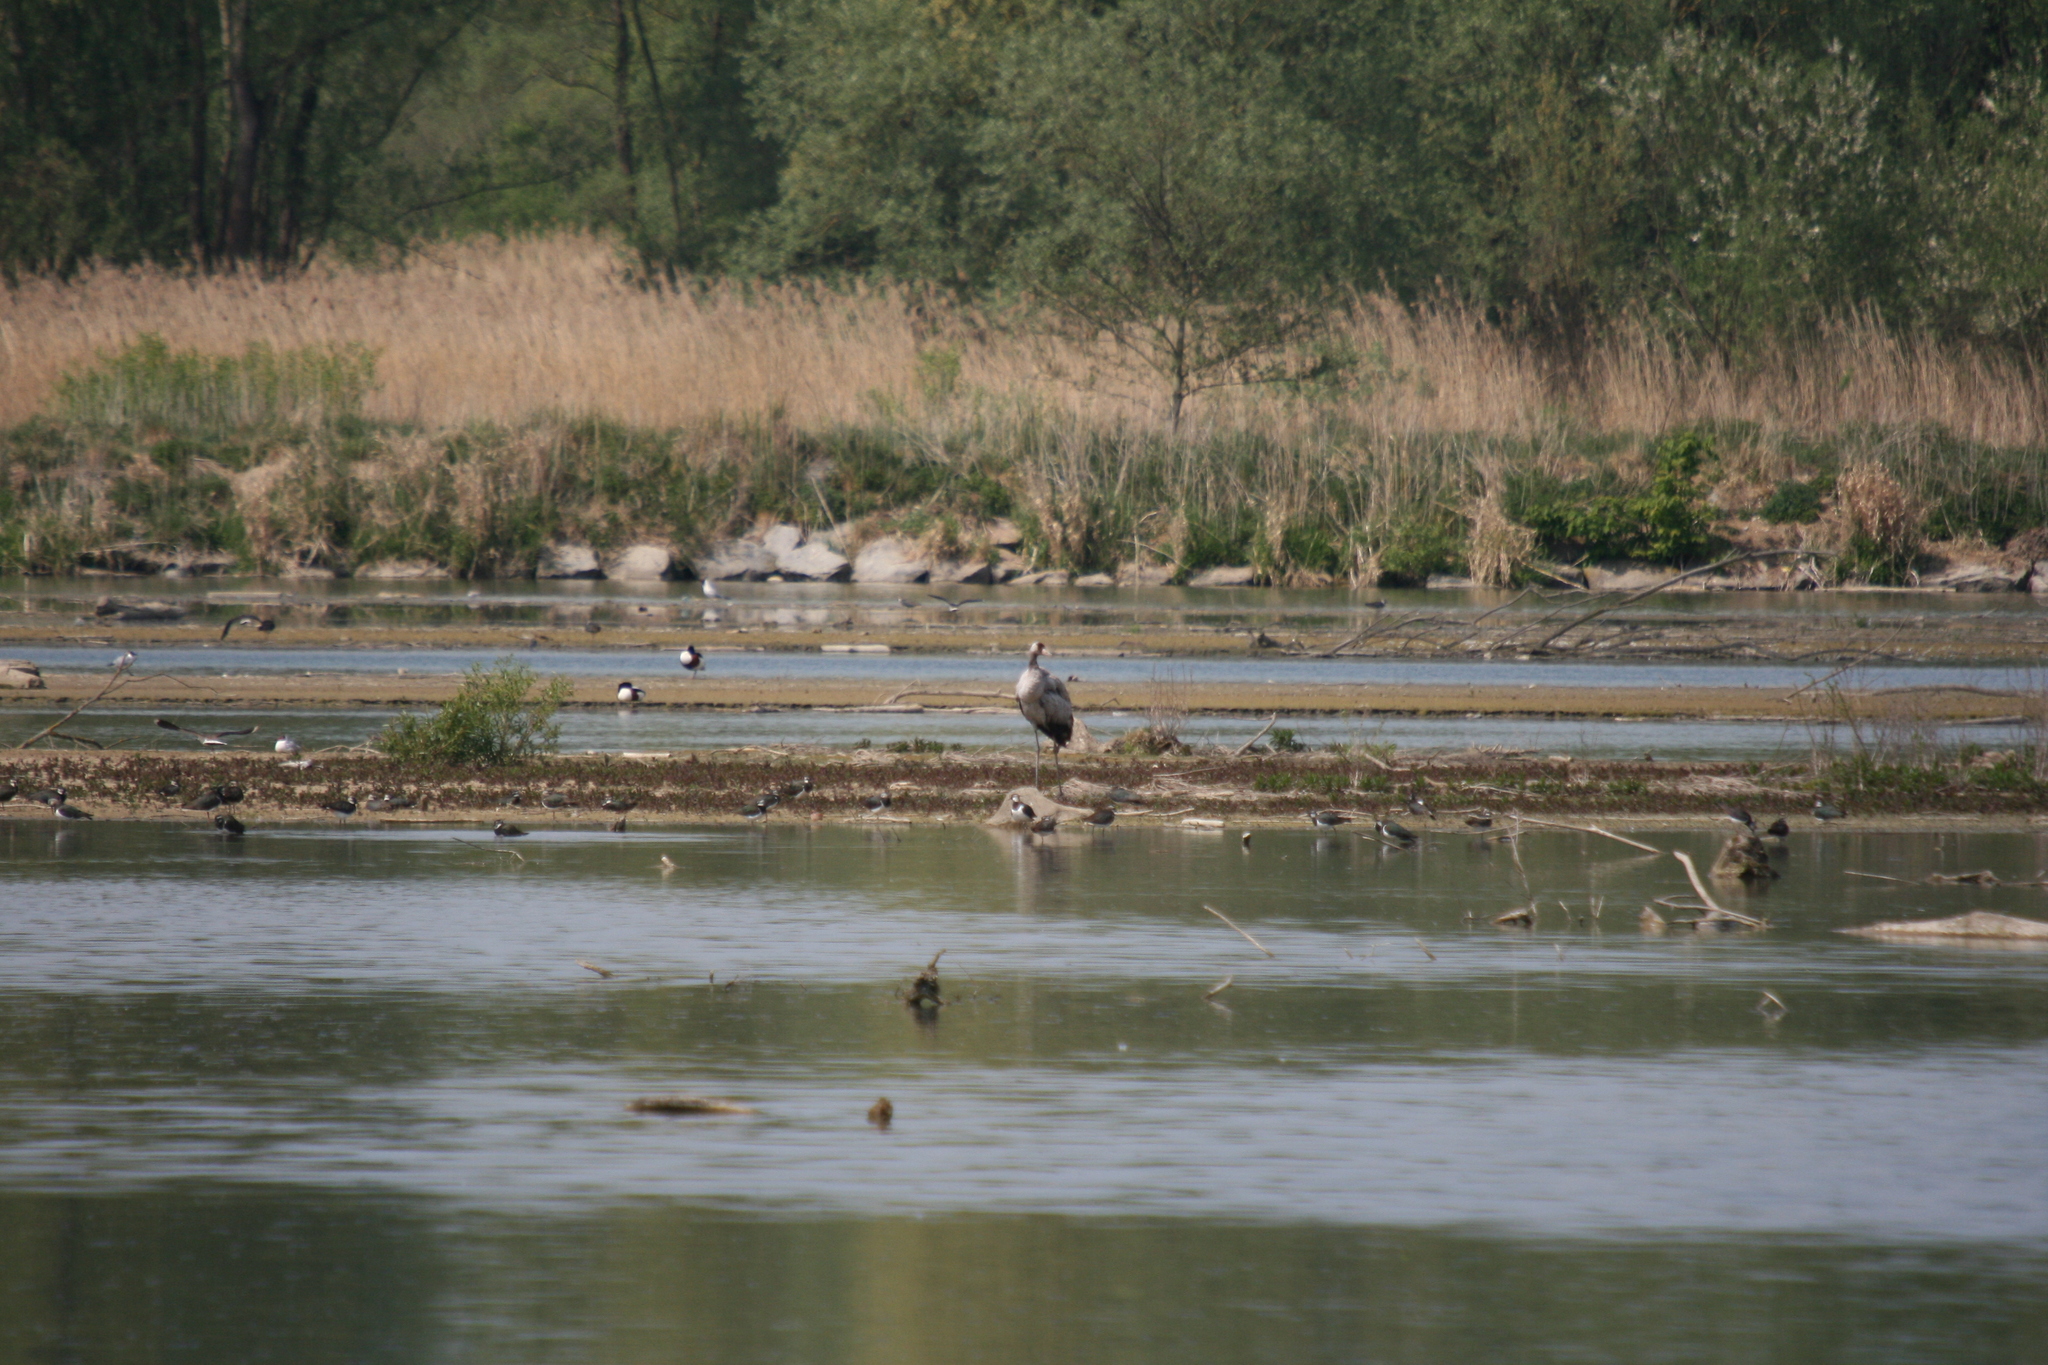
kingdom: Animalia
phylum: Chordata
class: Aves
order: Gruiformes
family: Gruidae
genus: Grus
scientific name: Grus grus
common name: Common crane
